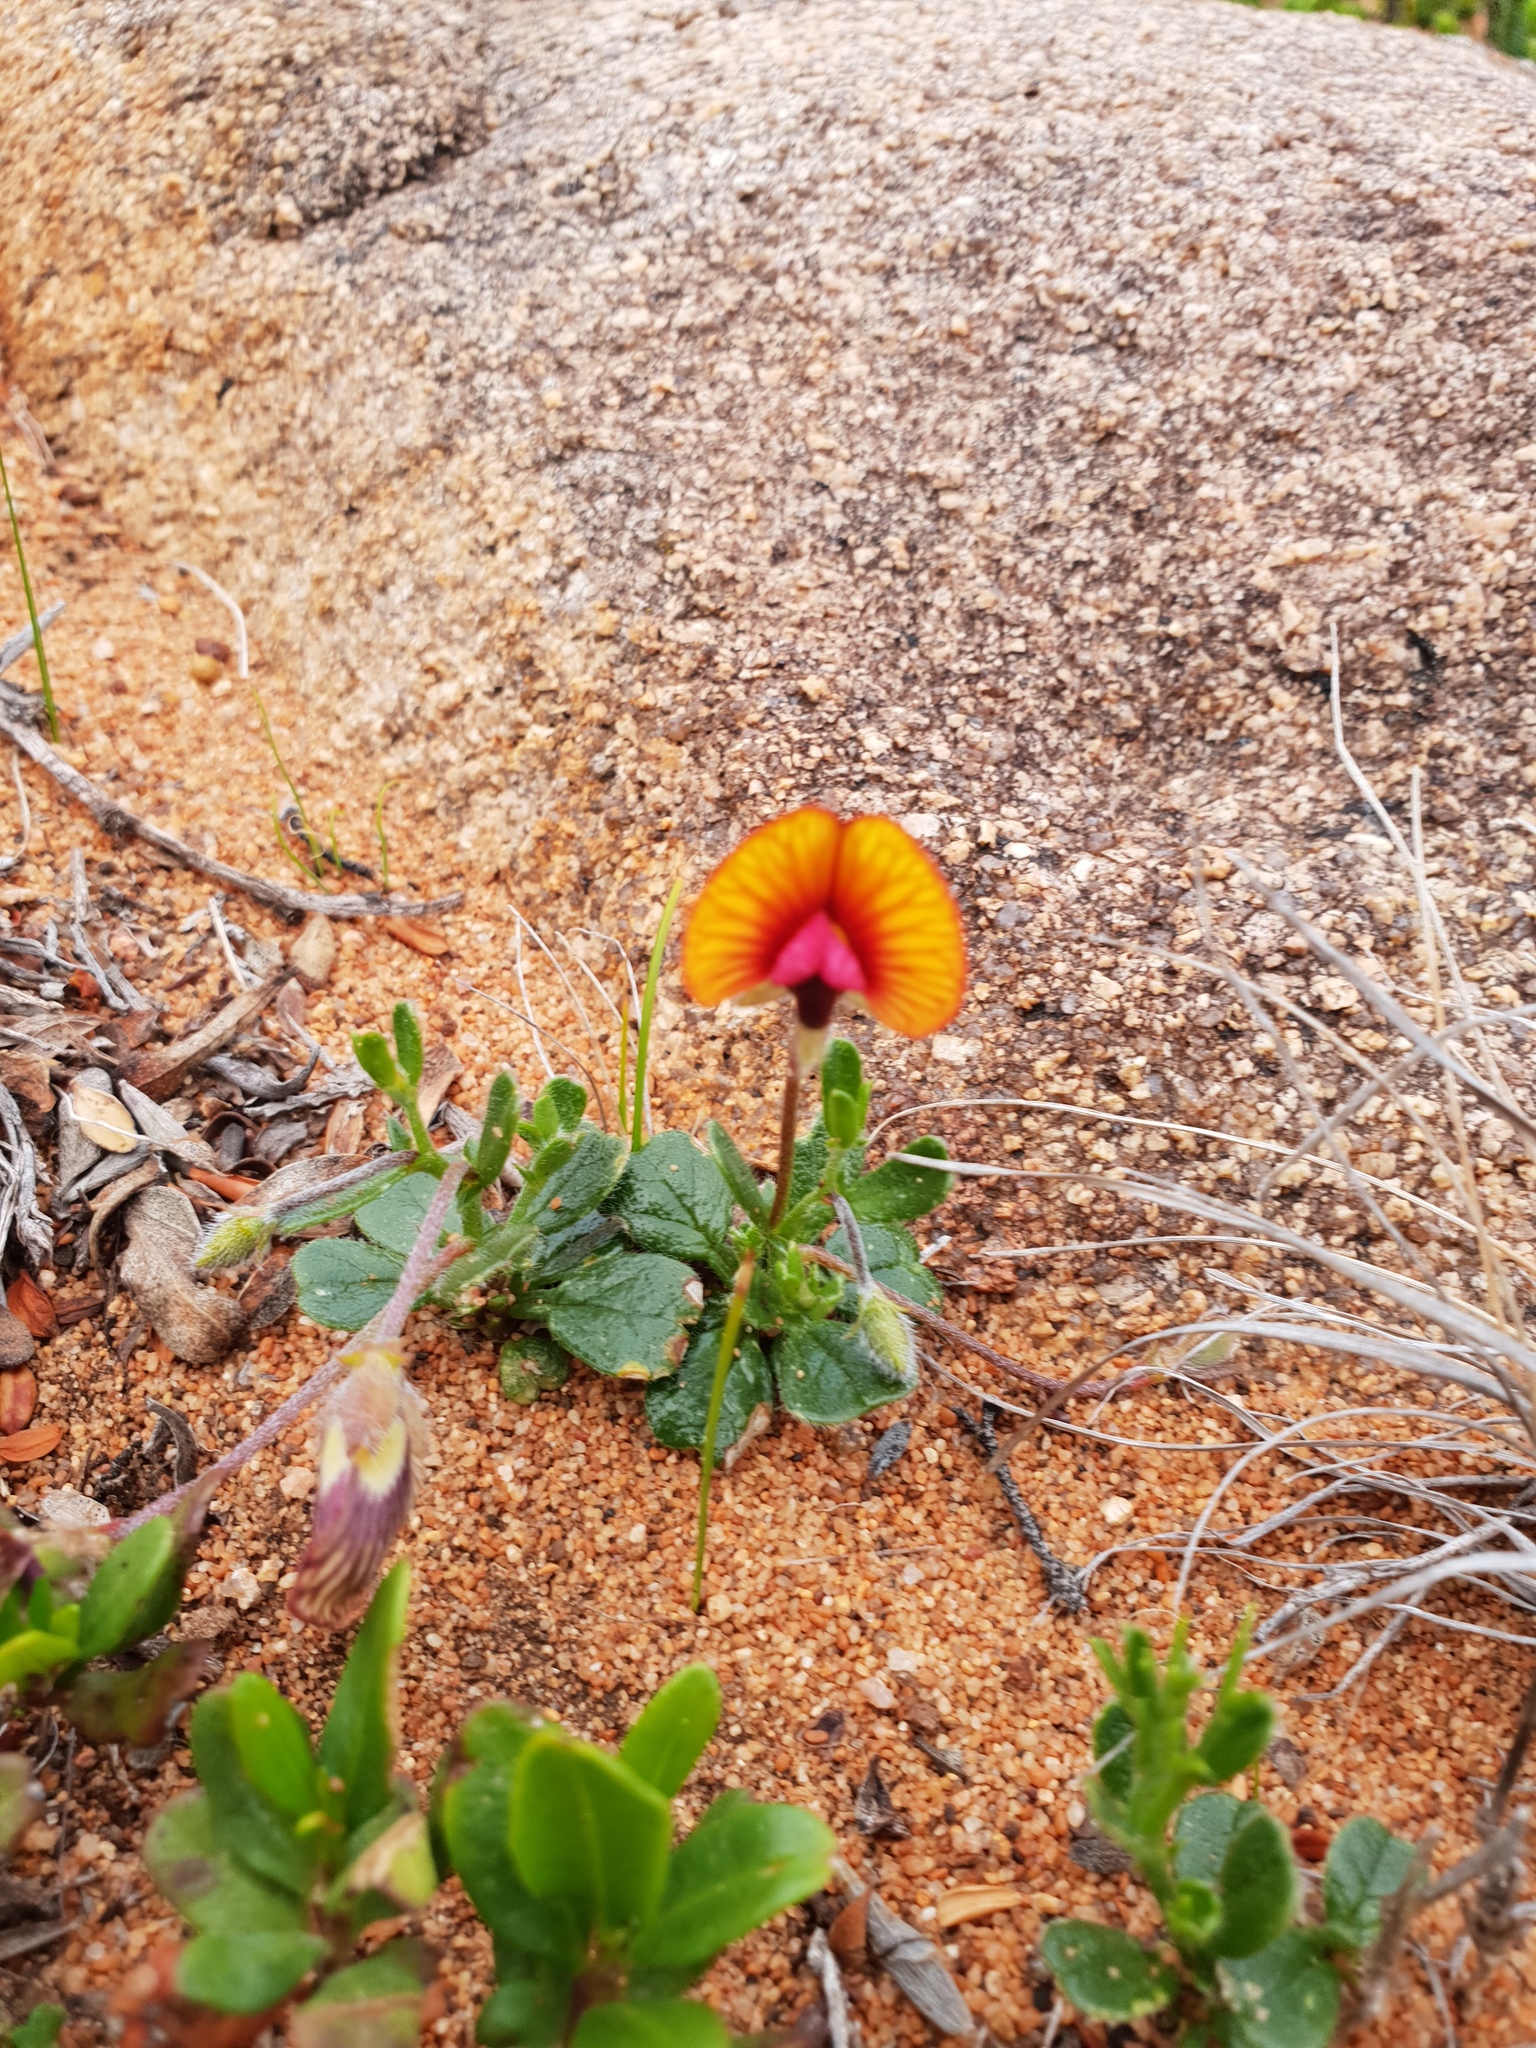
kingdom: Plantae
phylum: Tracheophyta
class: Magnoliopsida
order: Fabales
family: Fabaceae
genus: Isotropis
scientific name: Isotropis cuneifolia
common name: Granny bonnets
